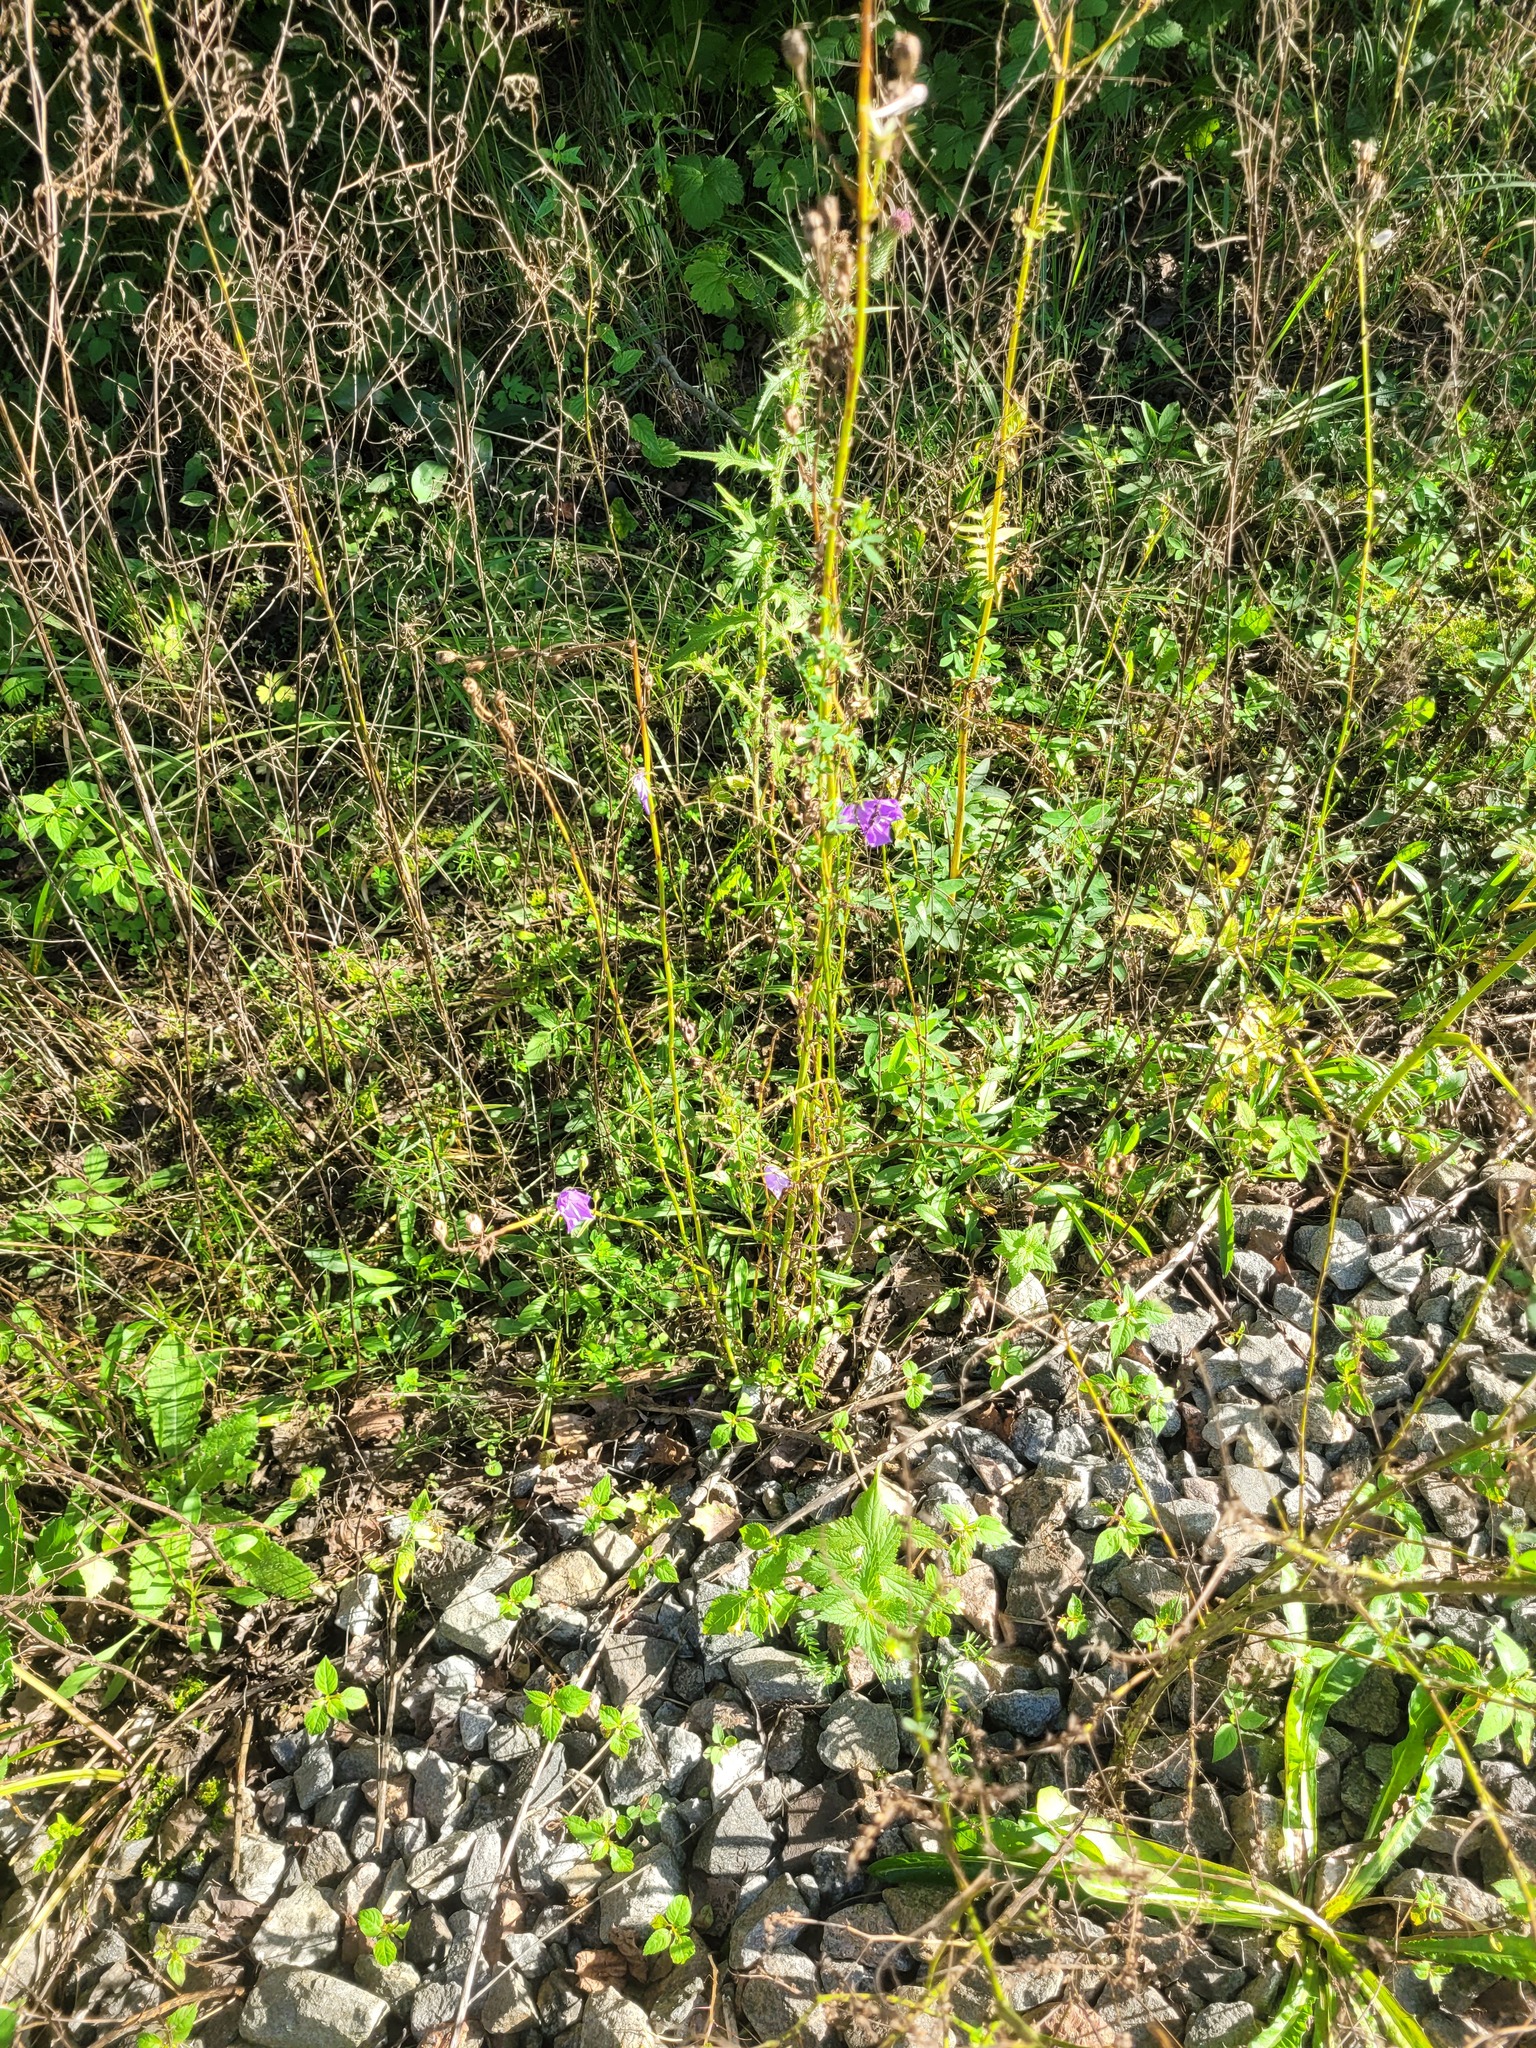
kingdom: Plantae
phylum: Tracheophyta
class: Magnoliopsida
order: Asterales
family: Campanulaceae
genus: Campanula
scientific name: Campanula persicifolia
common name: Peach-leaved bellflower
